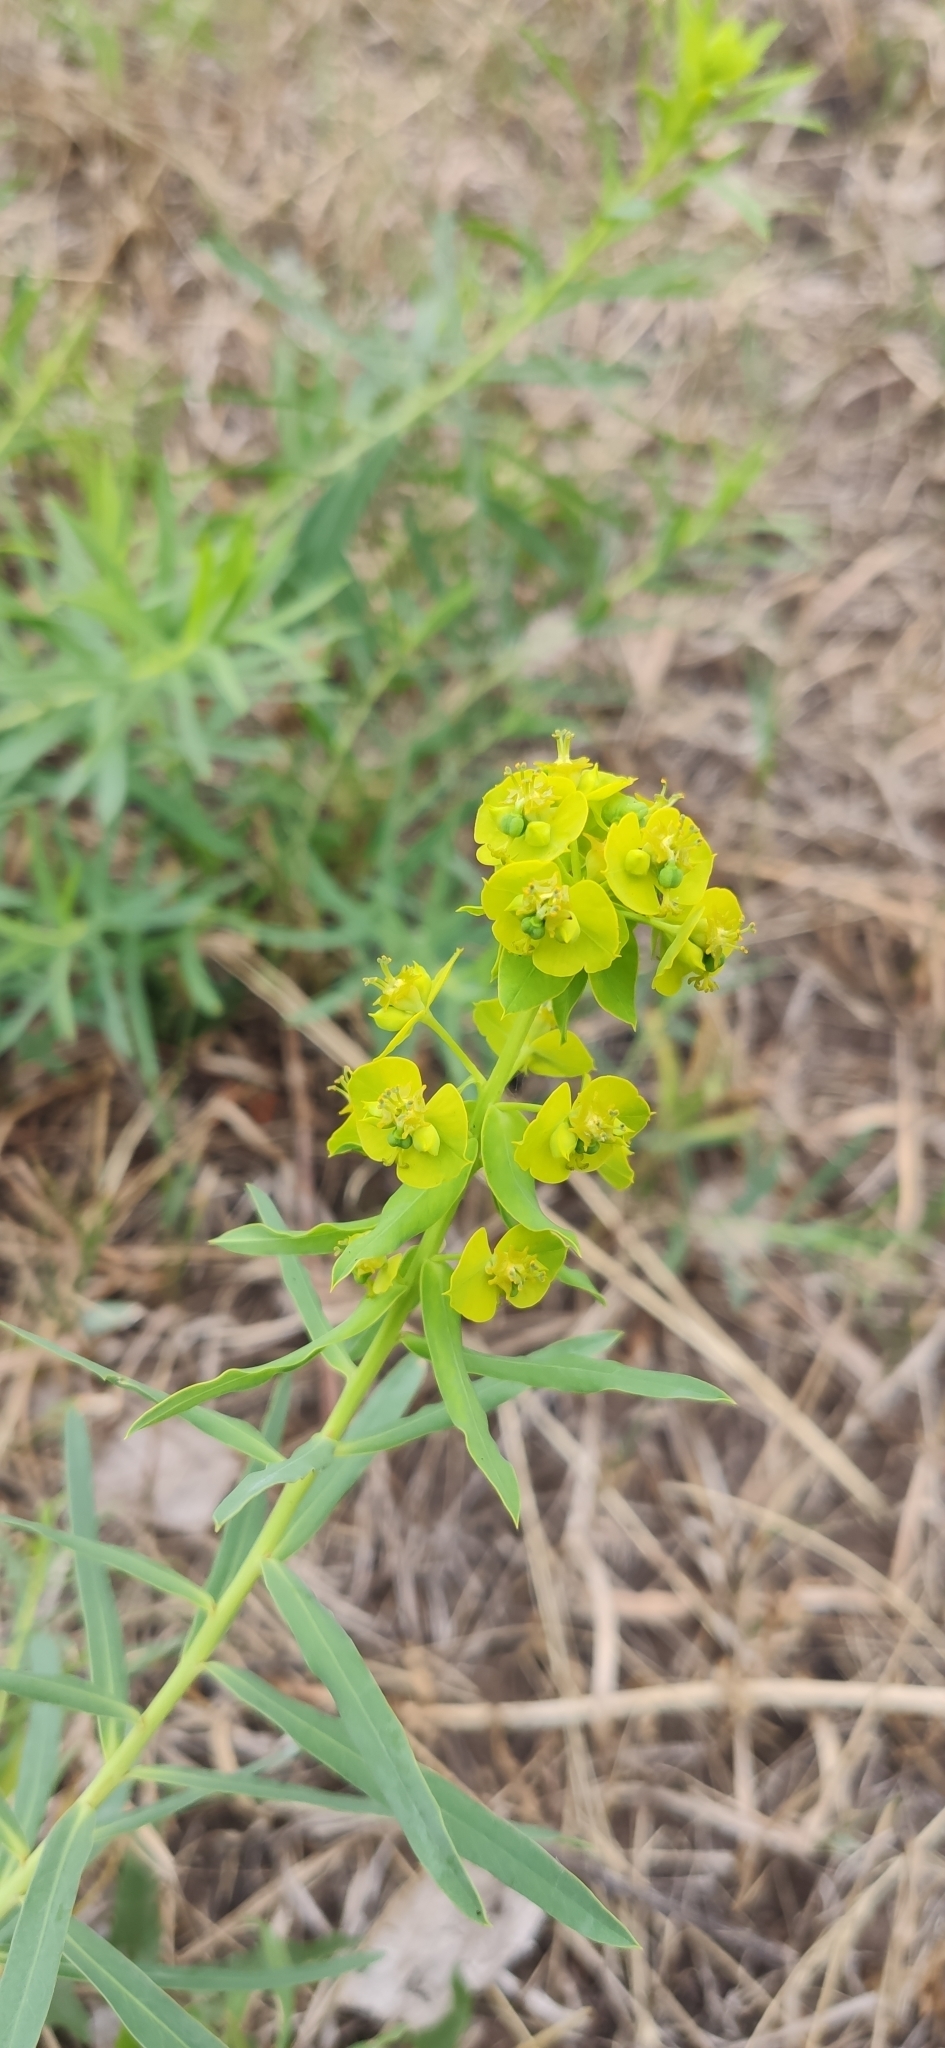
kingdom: Plantae
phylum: Tracheophyta
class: Magnoliopsida
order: Malpighiales
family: Euphorbiaceae
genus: Euphorbia
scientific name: Euphorbia virgata
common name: Leafy spurge
